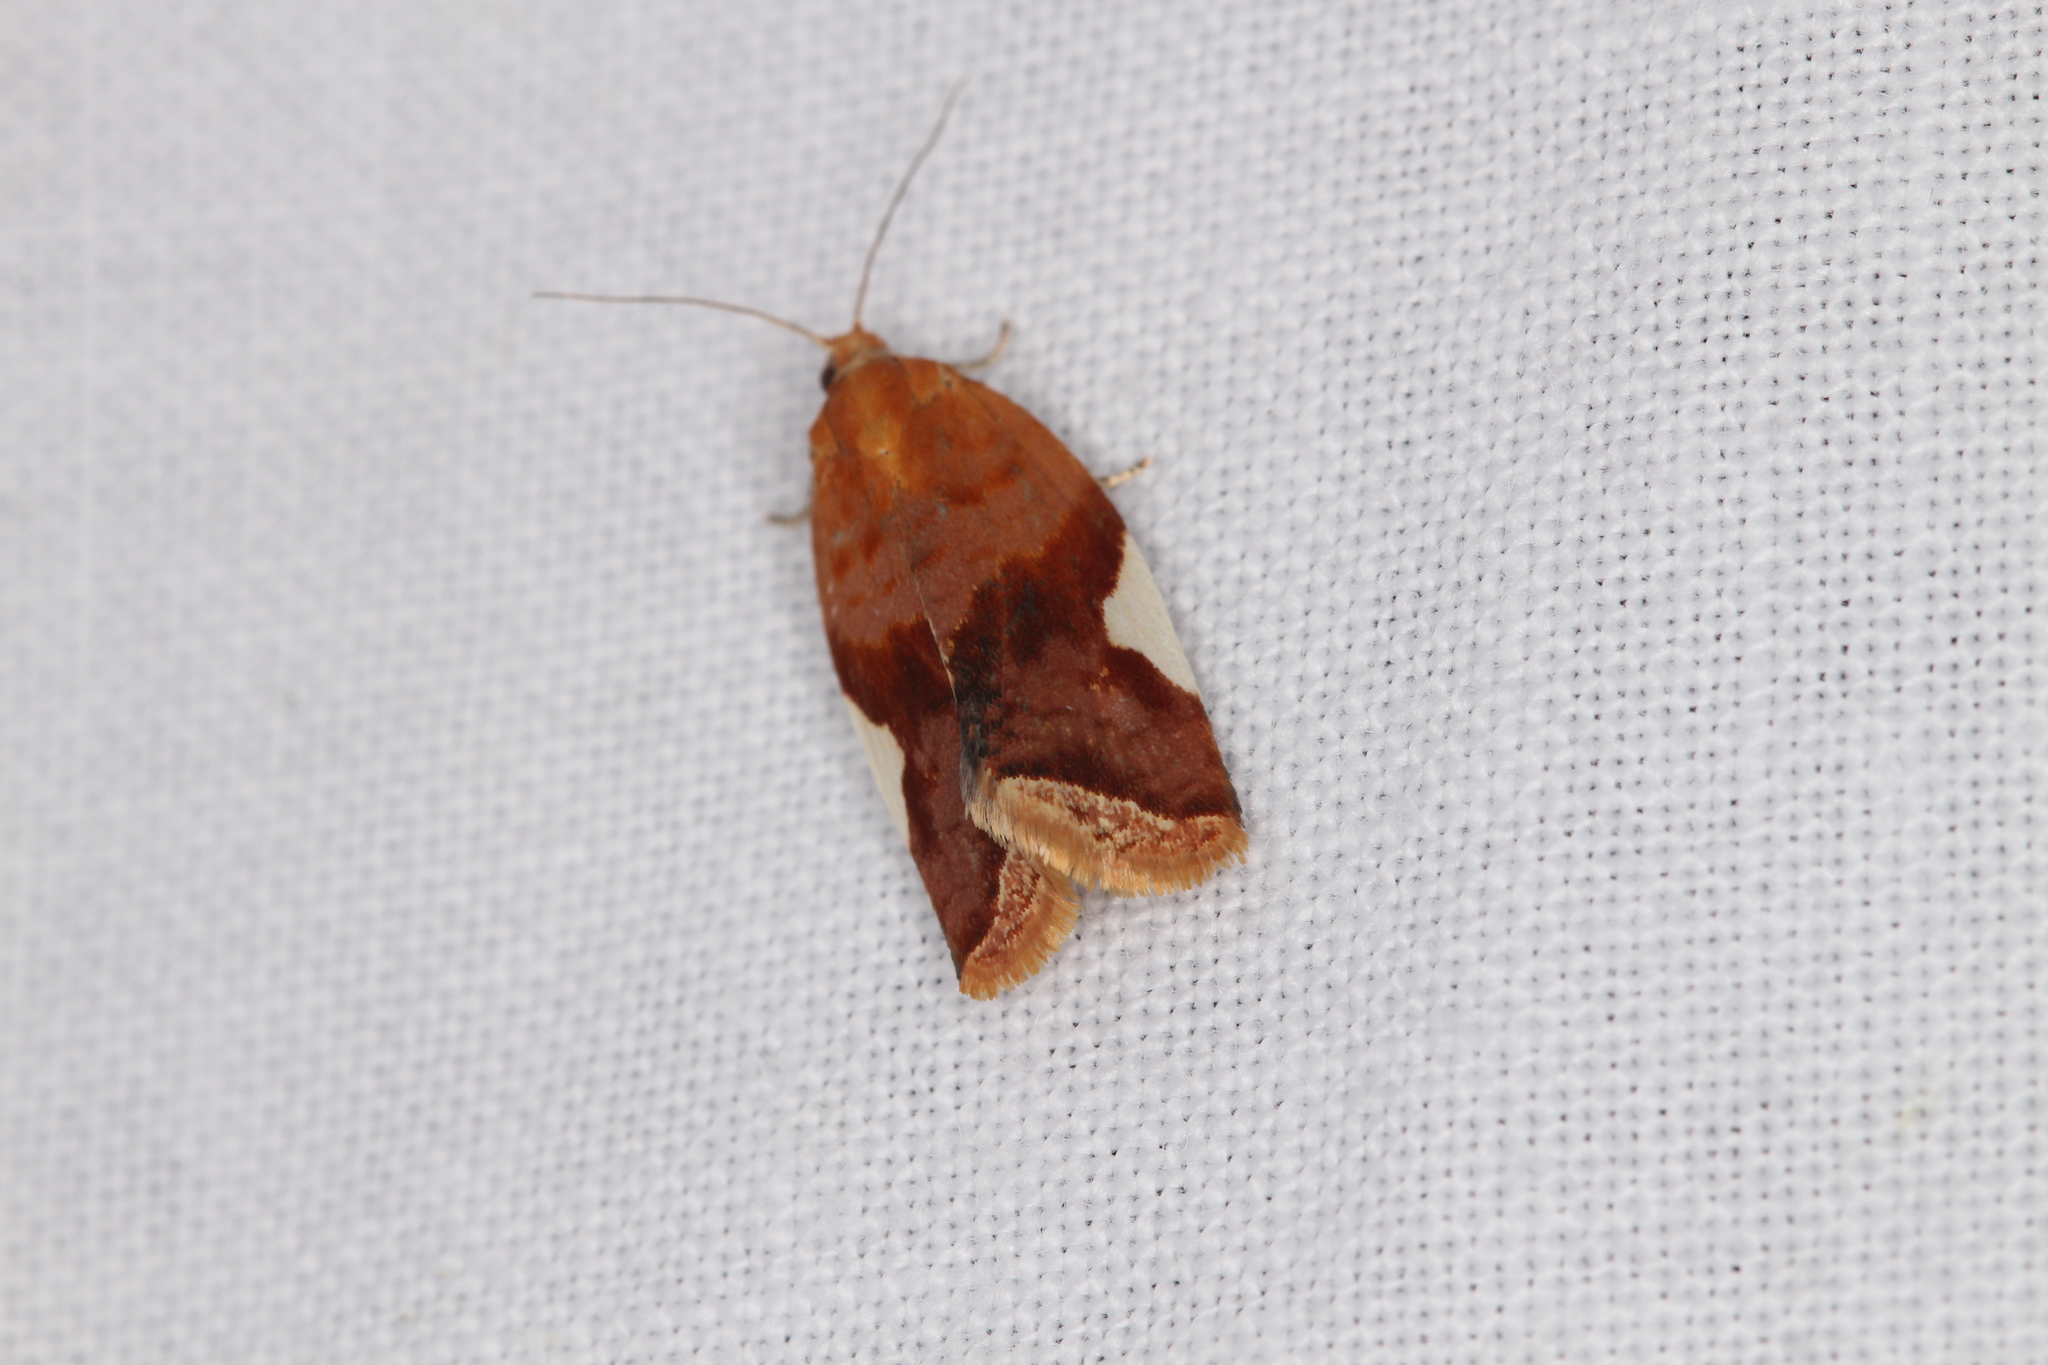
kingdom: Animalia
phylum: Arthropoda
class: Insecta
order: Lepidoptera
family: Tortricidae
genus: Clepsis
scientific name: Clepsis persicana
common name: White triangle tortrix
